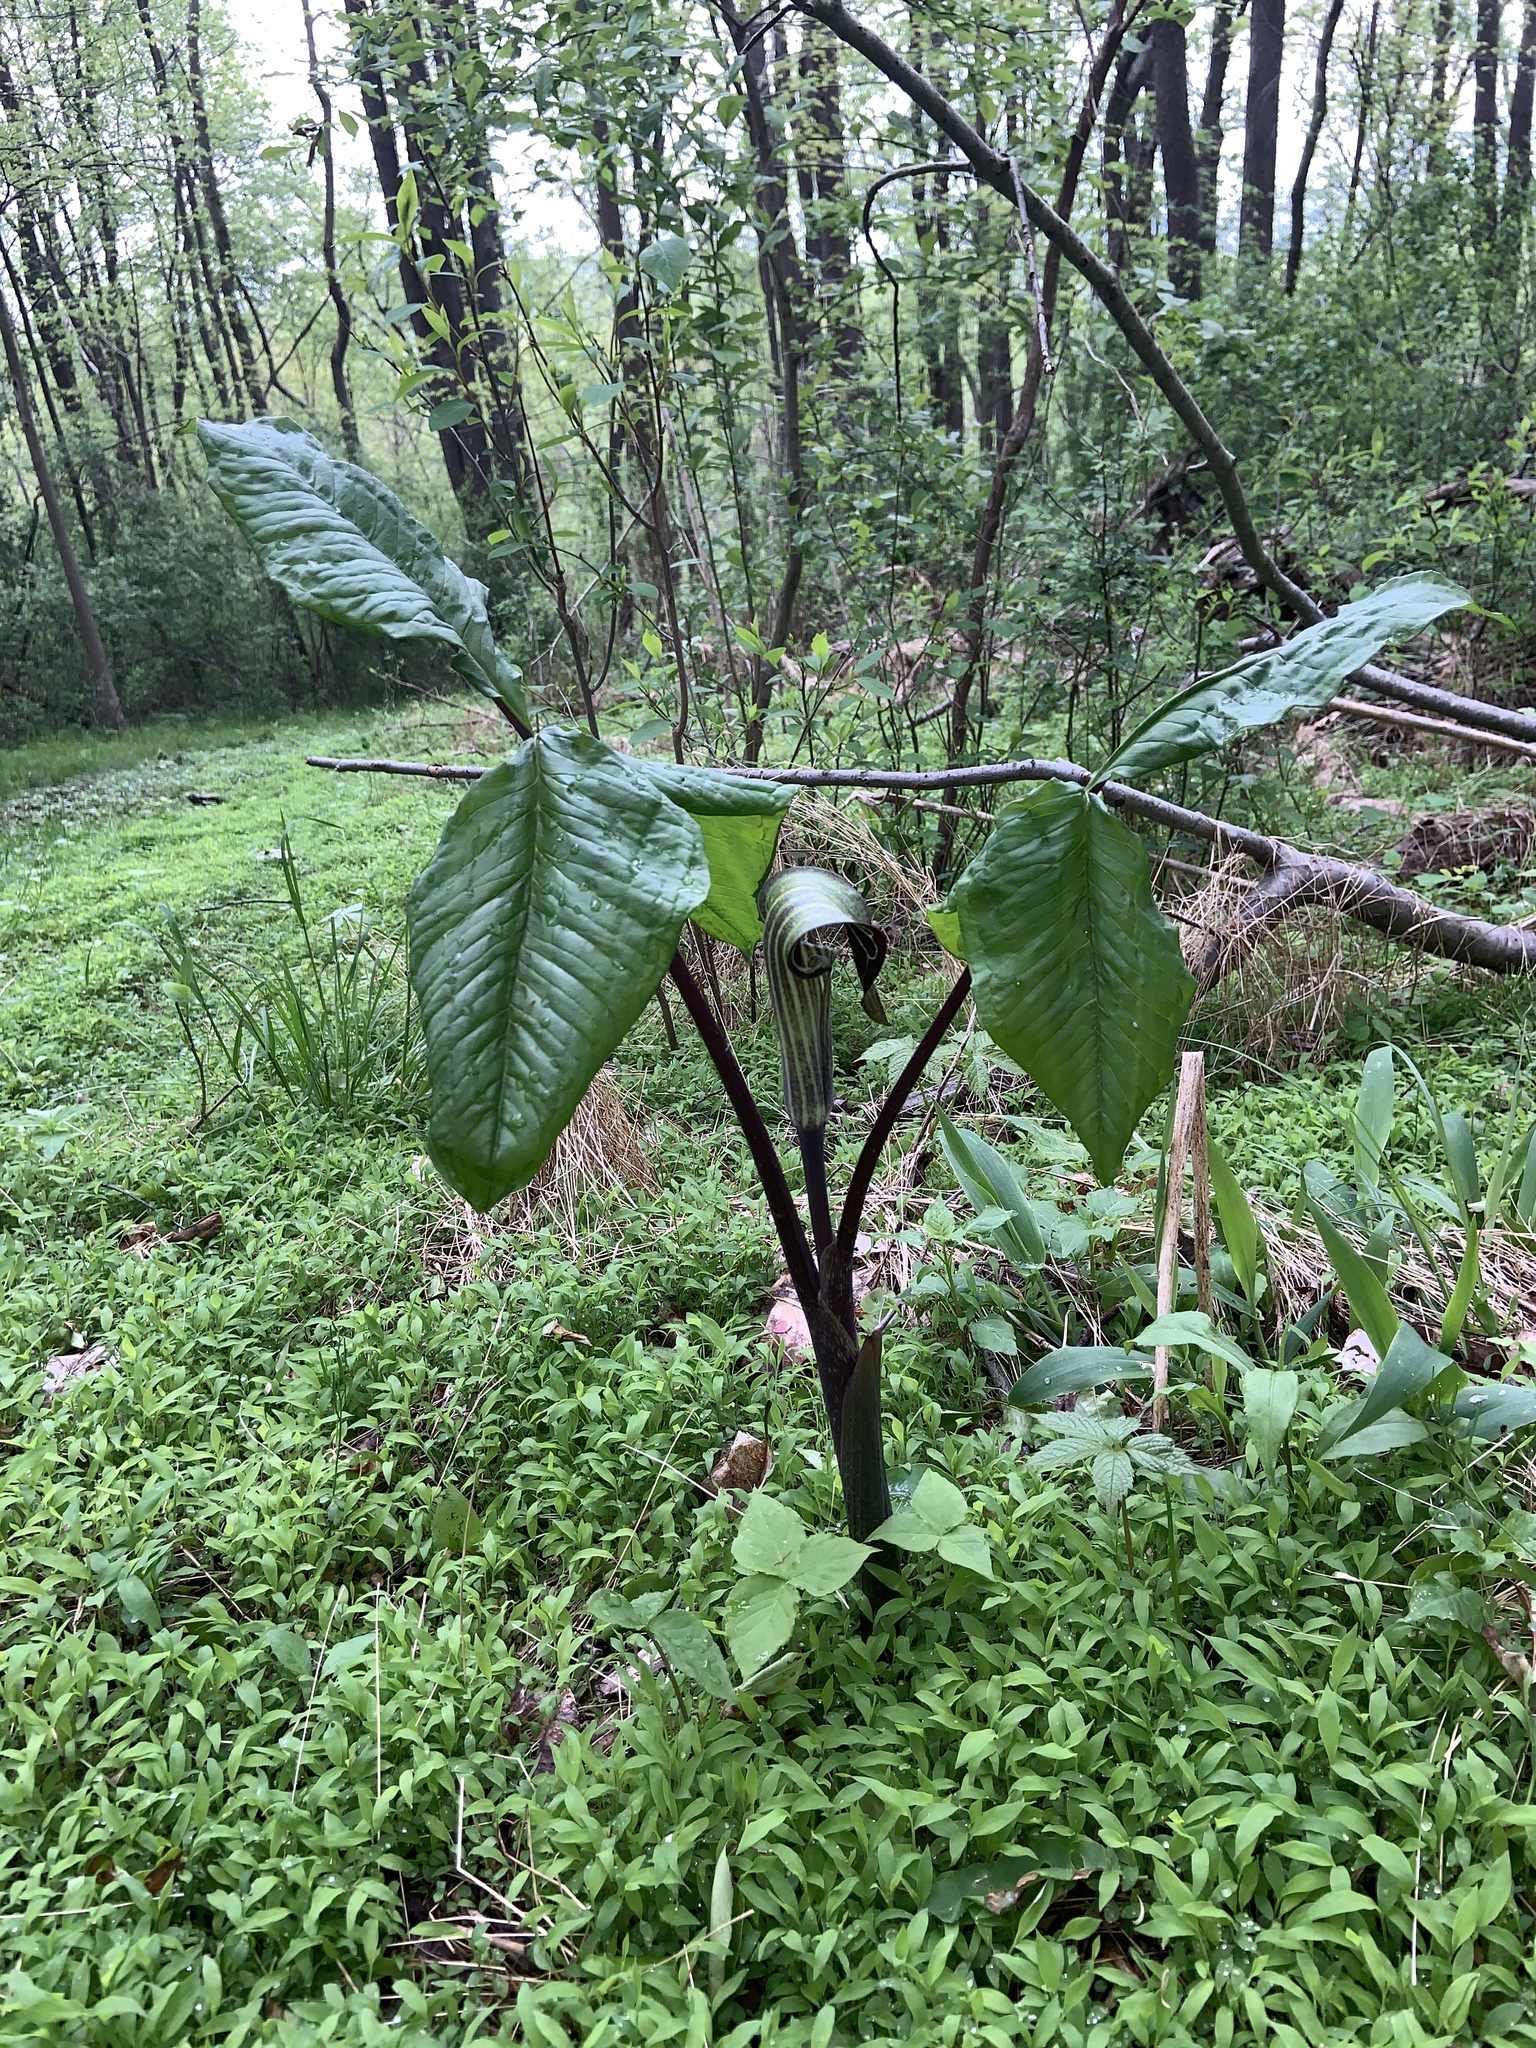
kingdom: Plantae
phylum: Tracheophyta
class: Liliopsida
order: Alismatales
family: Araceae
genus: Arisaema
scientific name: Arisaema triphyllum
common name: Jack-in-the-pulpit
